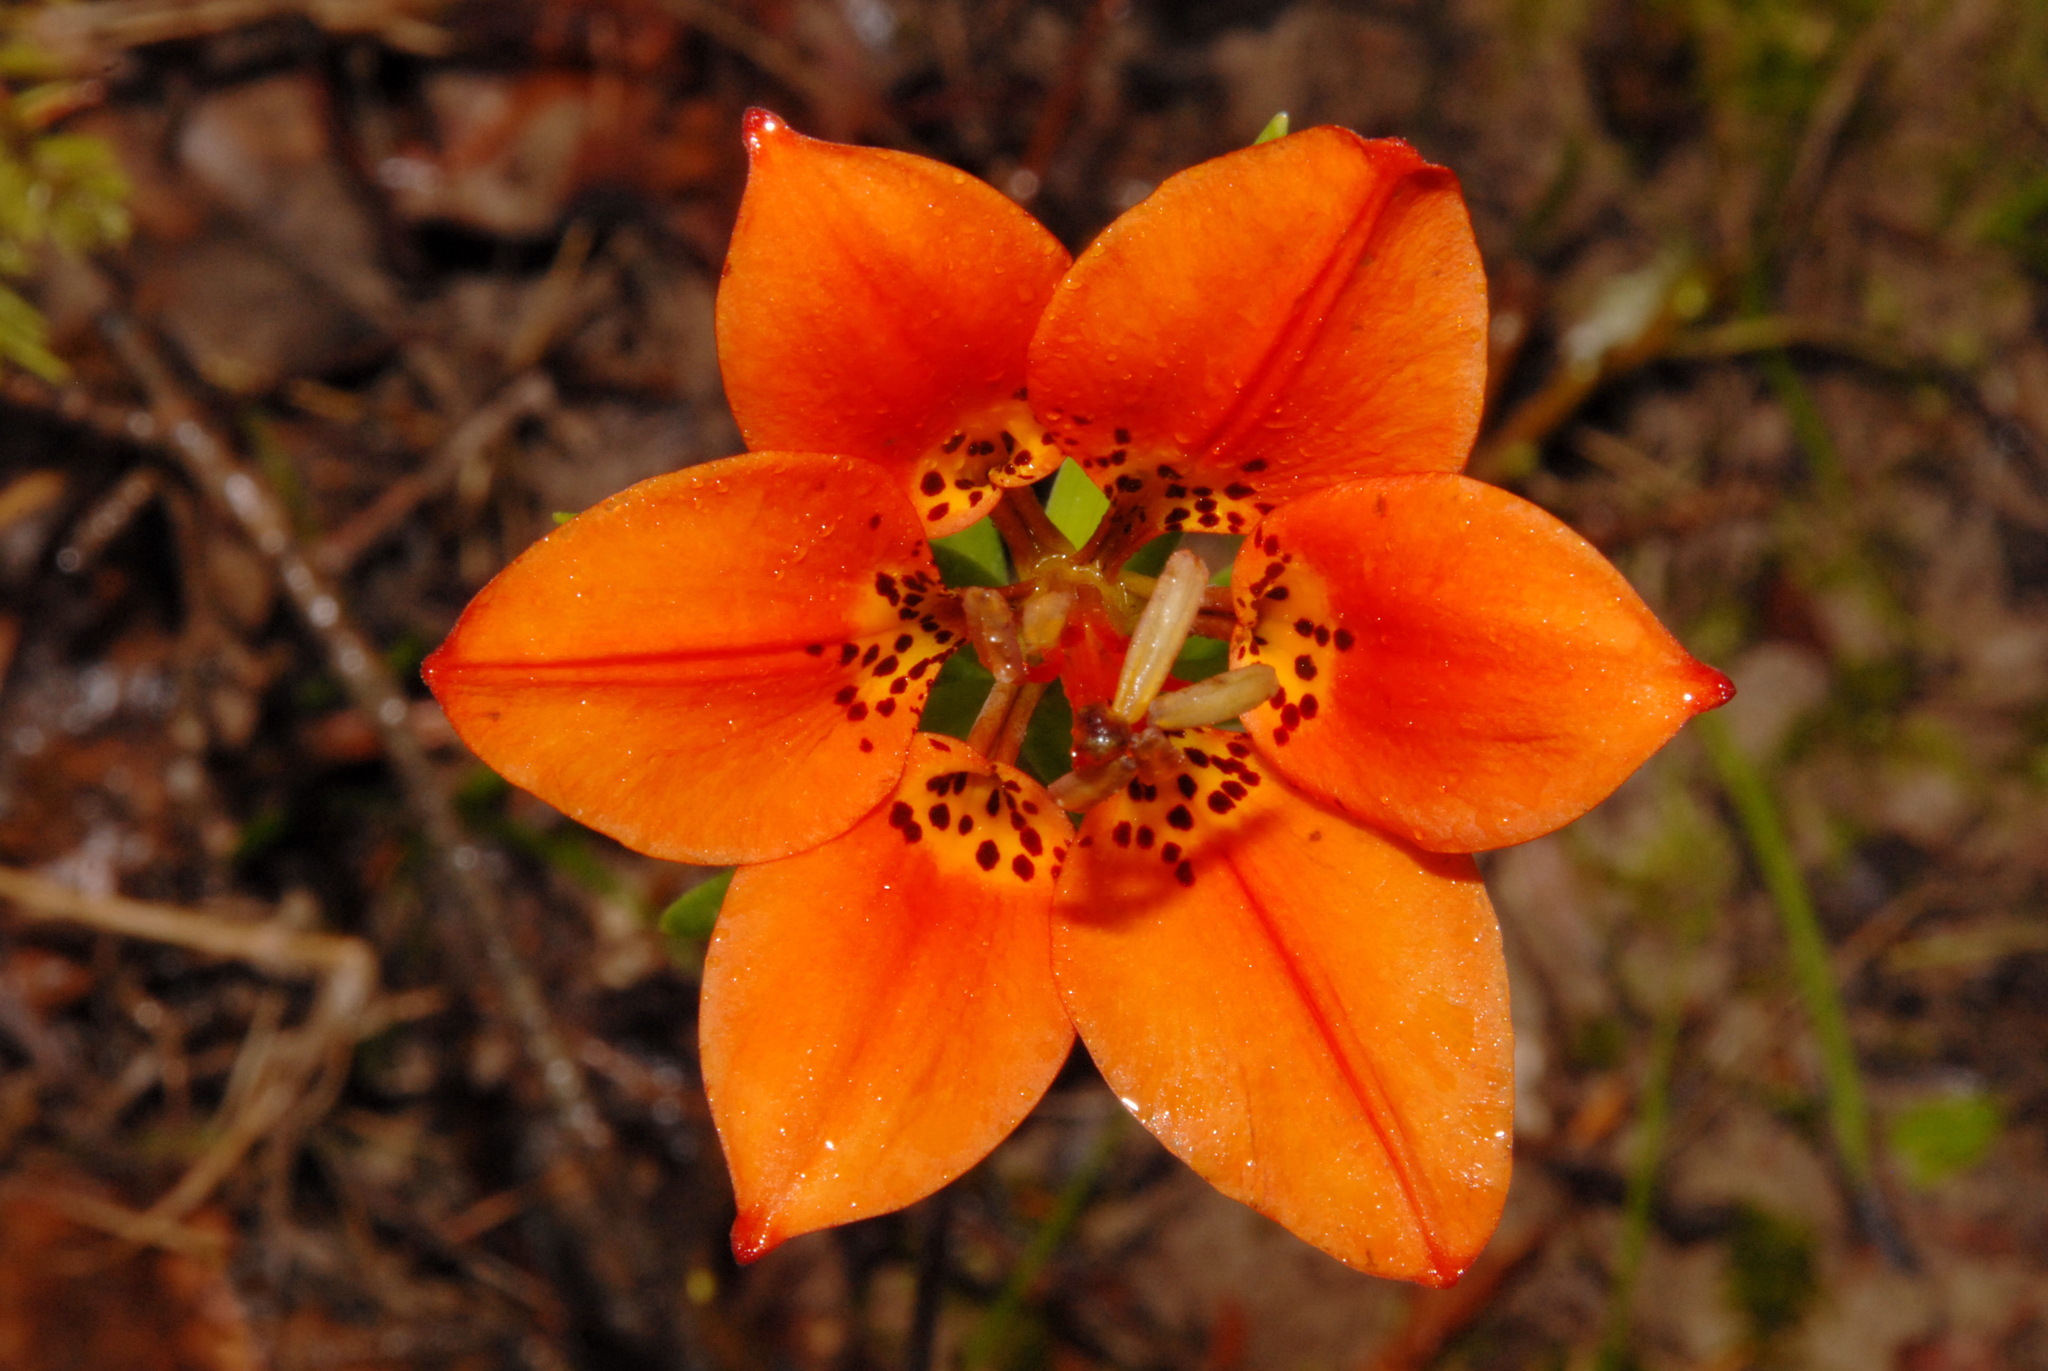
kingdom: Plantae
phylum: Tracheophyta
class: Liliopsida
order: Liliales
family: Liliaceae
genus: Lilium
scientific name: Lilium philadelphicum
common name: Red lily
